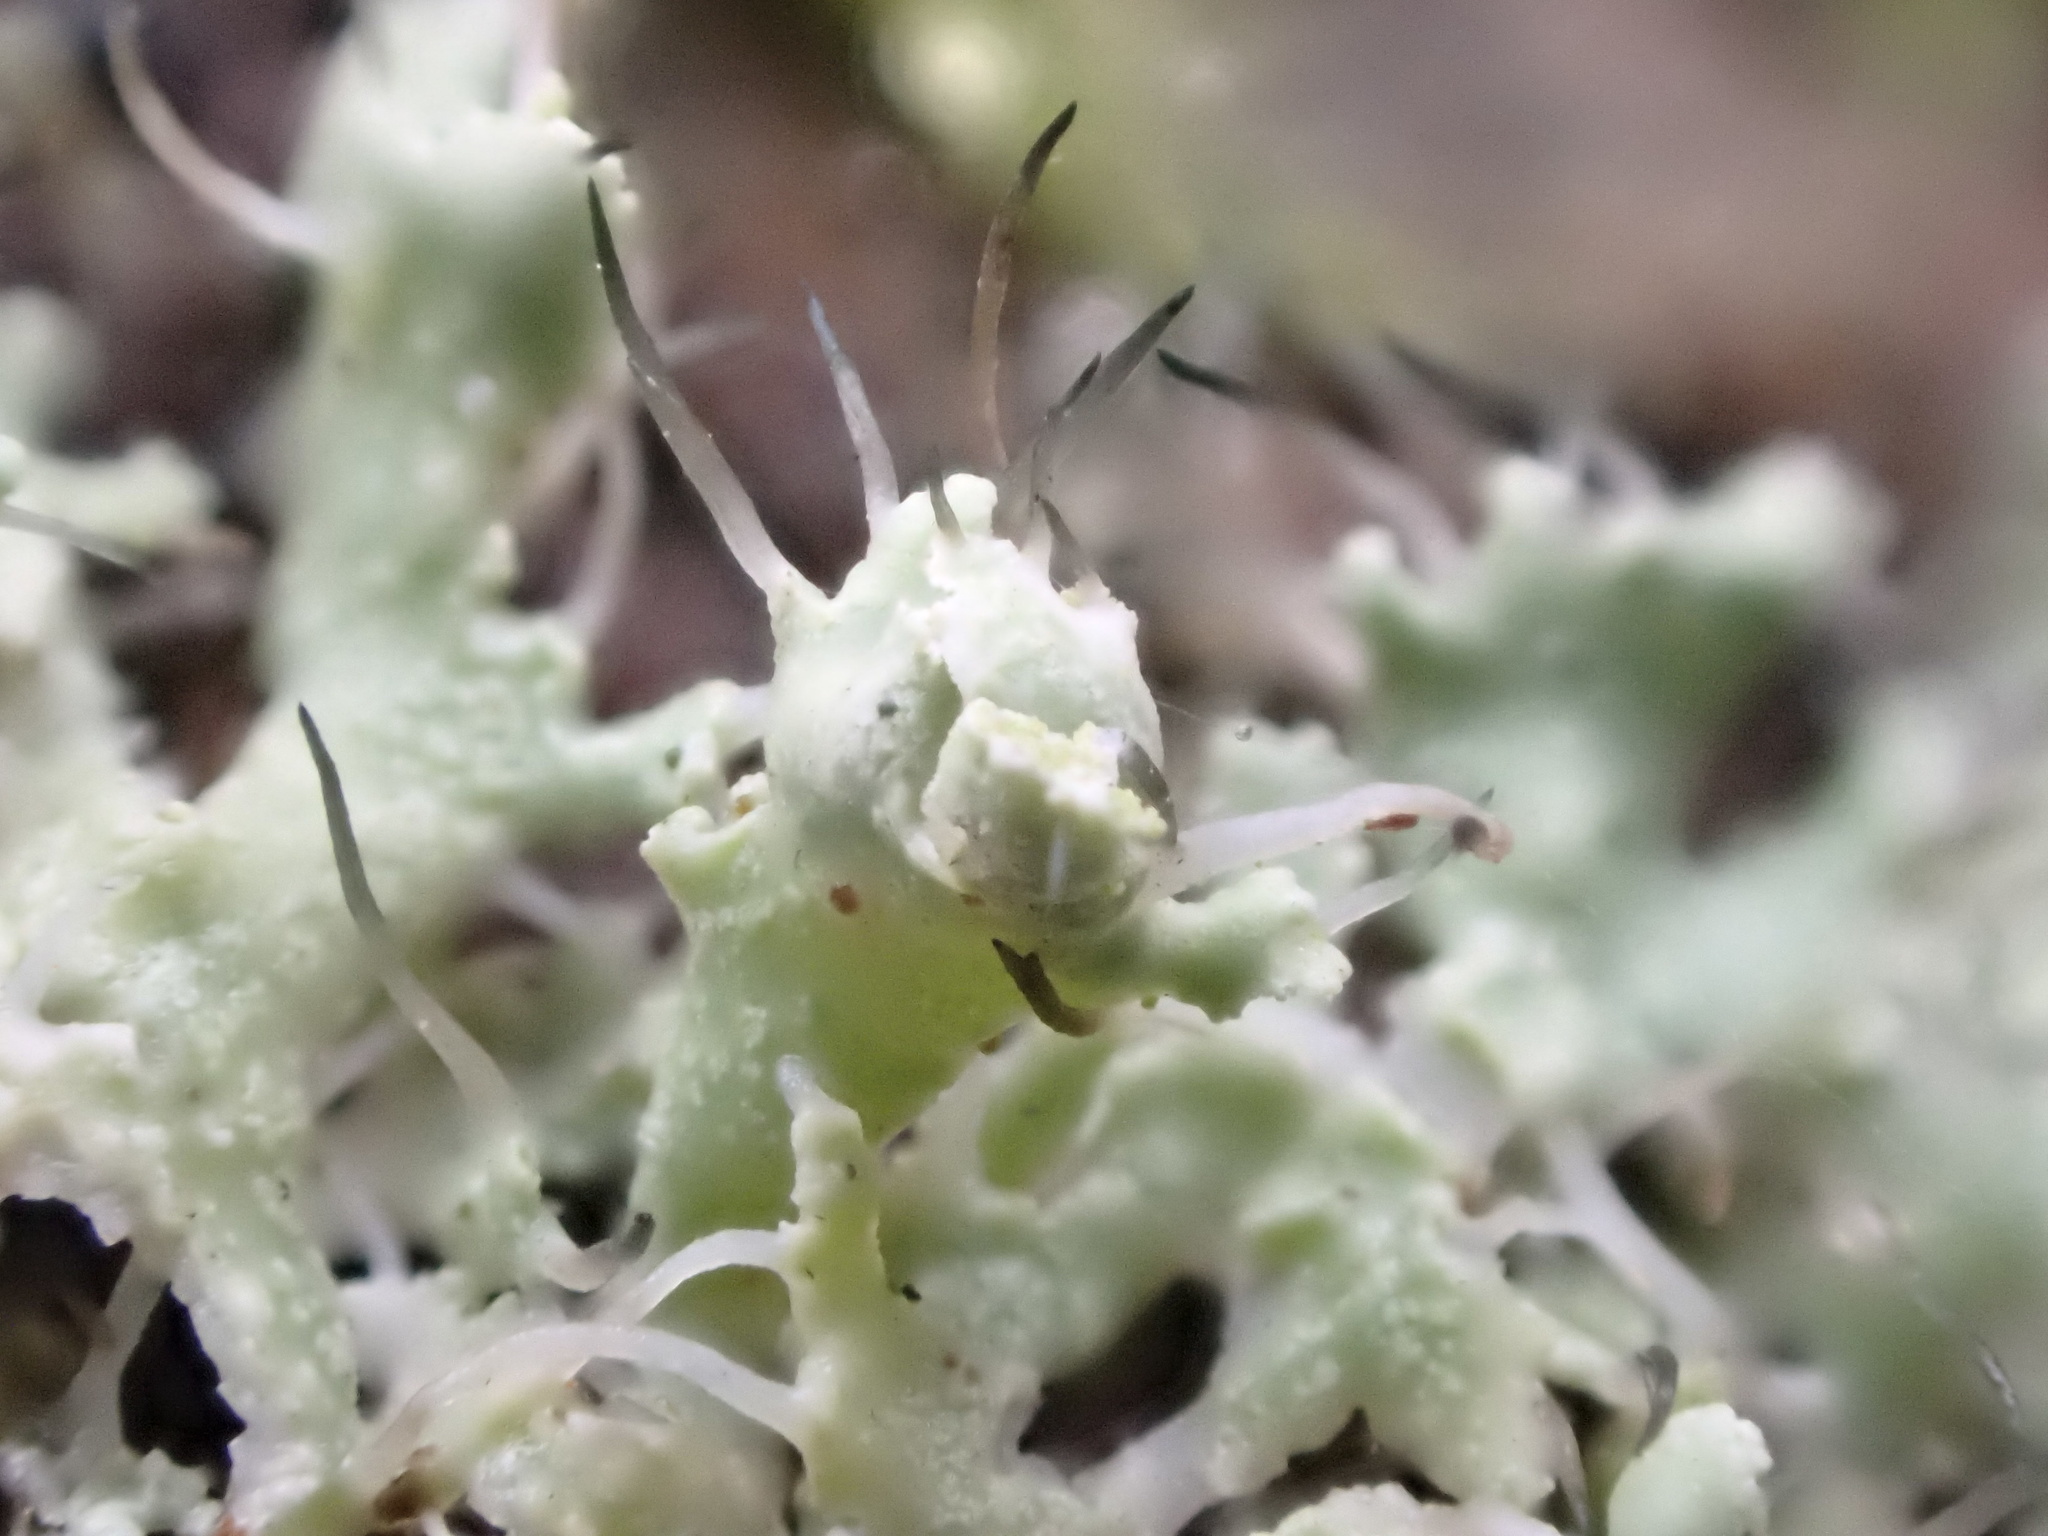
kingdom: Fungi
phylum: Ascomycota
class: Lecanoromycetes
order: Caliciales
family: Physciaceae
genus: Physcia
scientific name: Physcia adscendens
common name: Hooded rosette lichen
